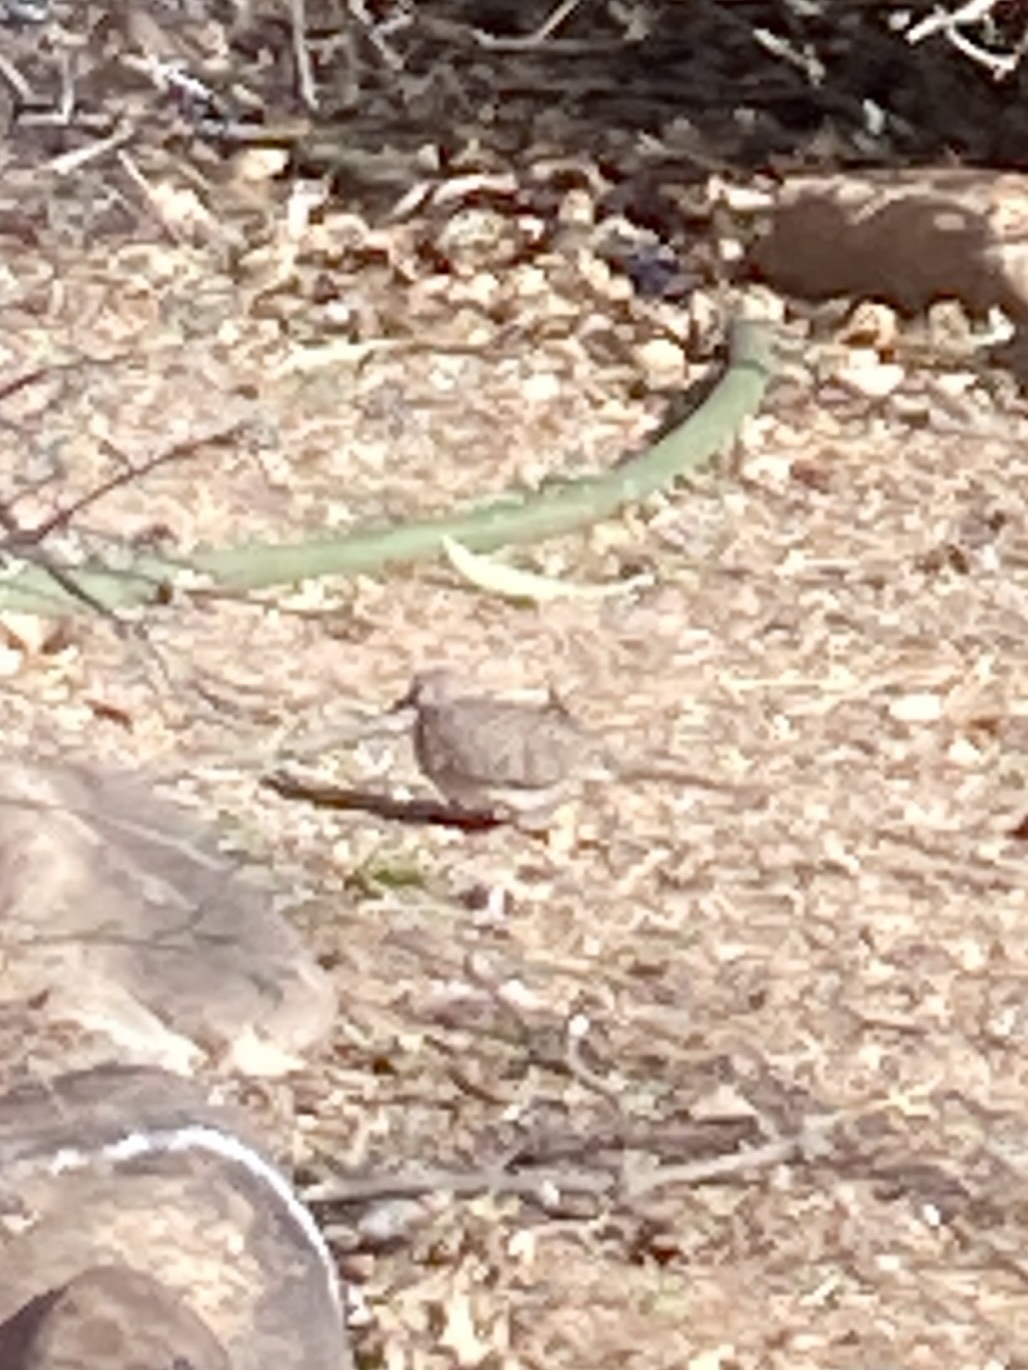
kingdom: Animalia
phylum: Chordata
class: Aves
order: Columbiformes
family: Columbidae
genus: Columbina
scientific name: Columbina inca
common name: Inca dove
